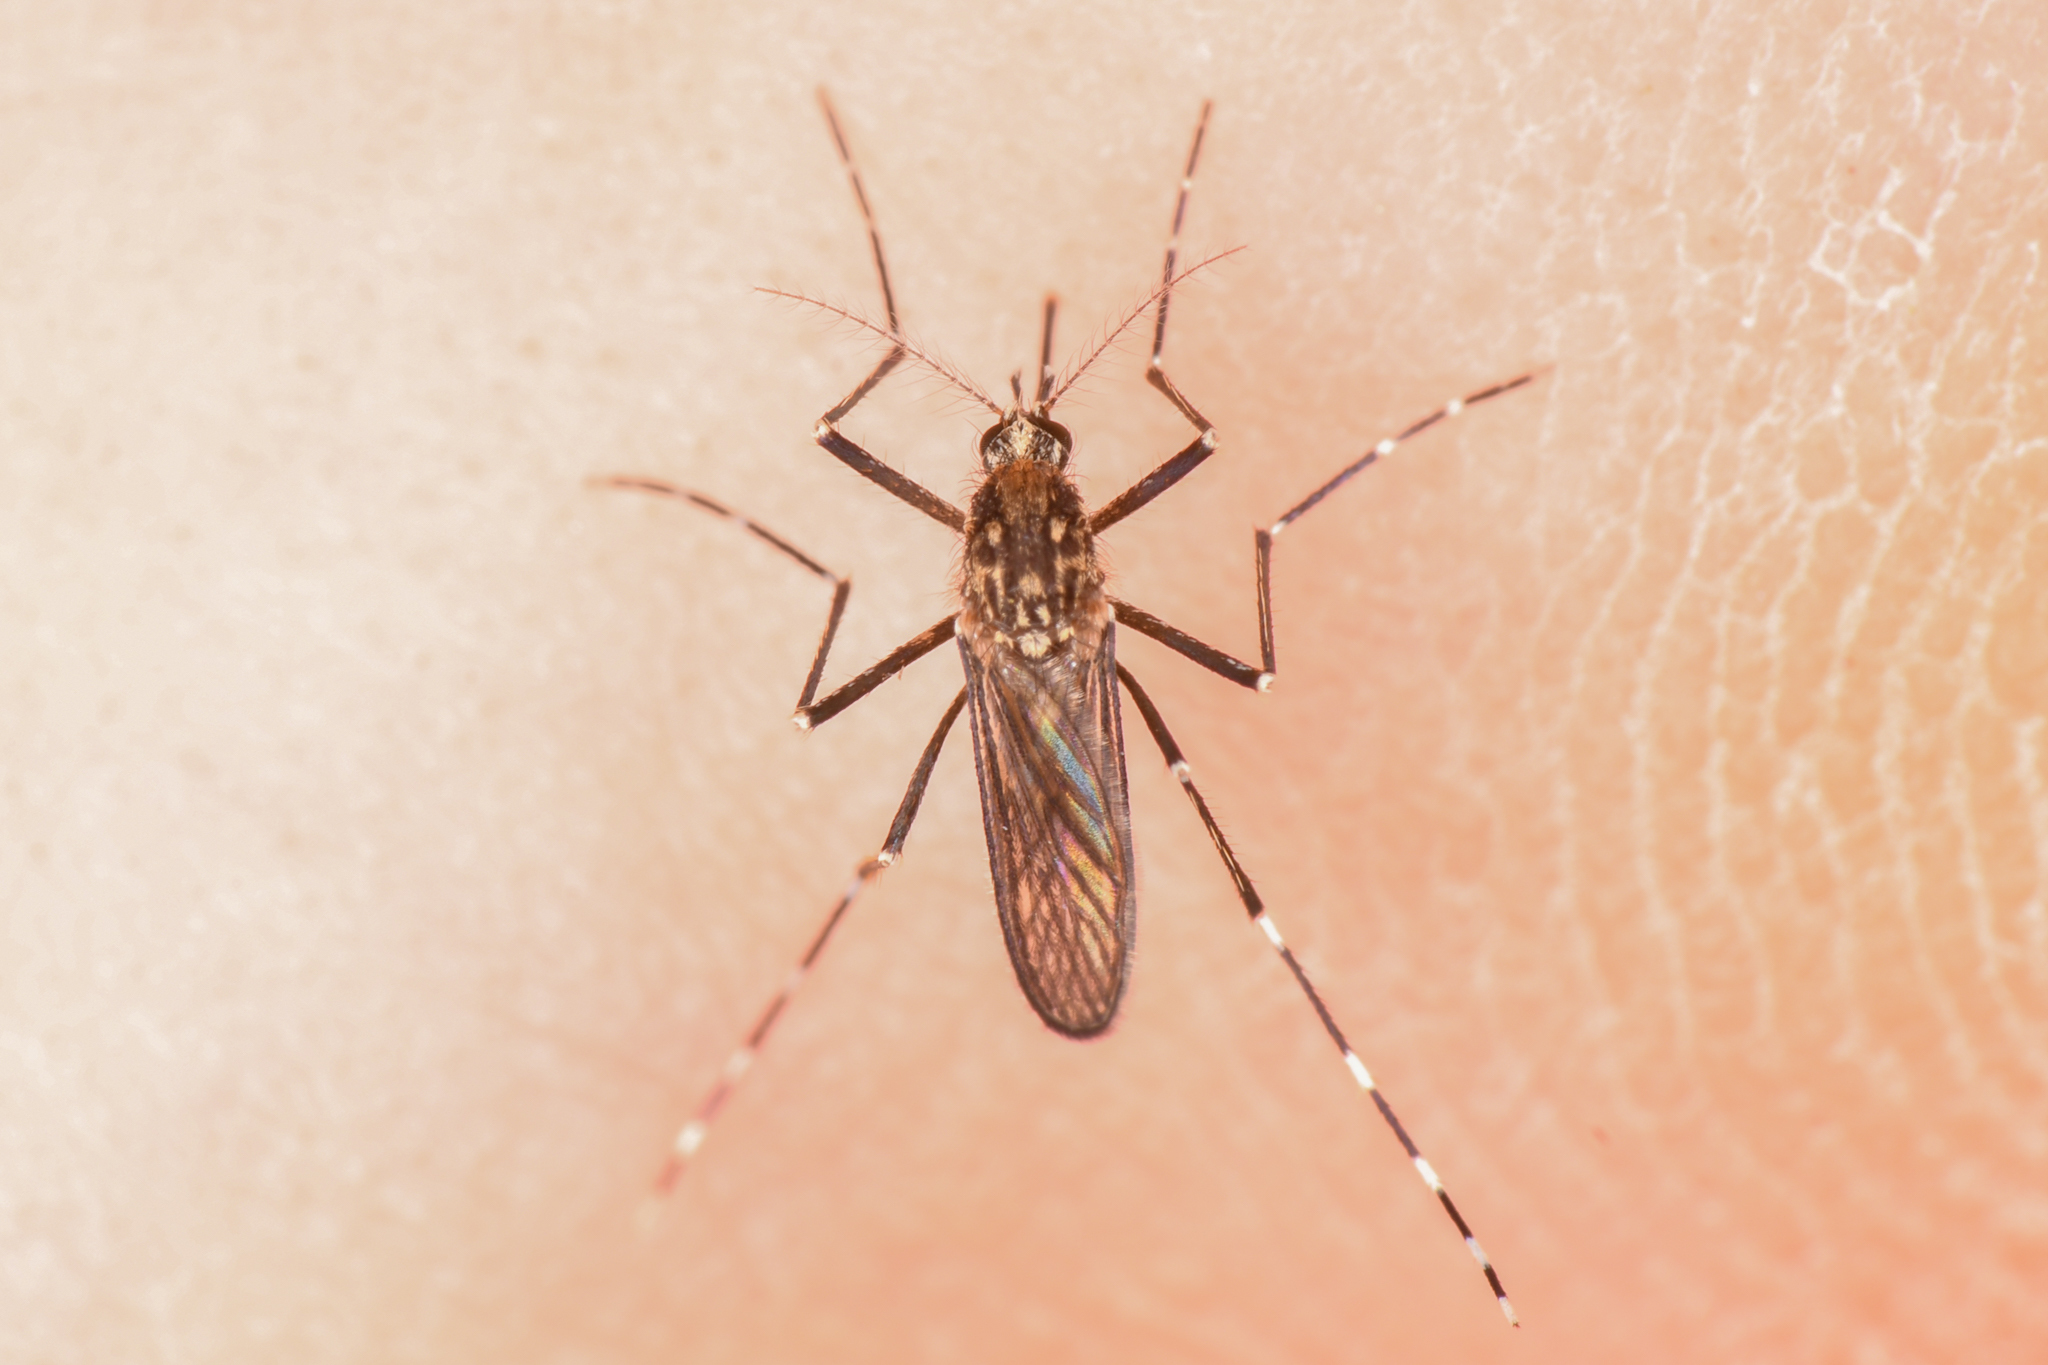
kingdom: Animalia
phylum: Arthropoda
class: Insecta
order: Diptera
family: Culicidae
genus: Aedes
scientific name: Aedes sierrensis
